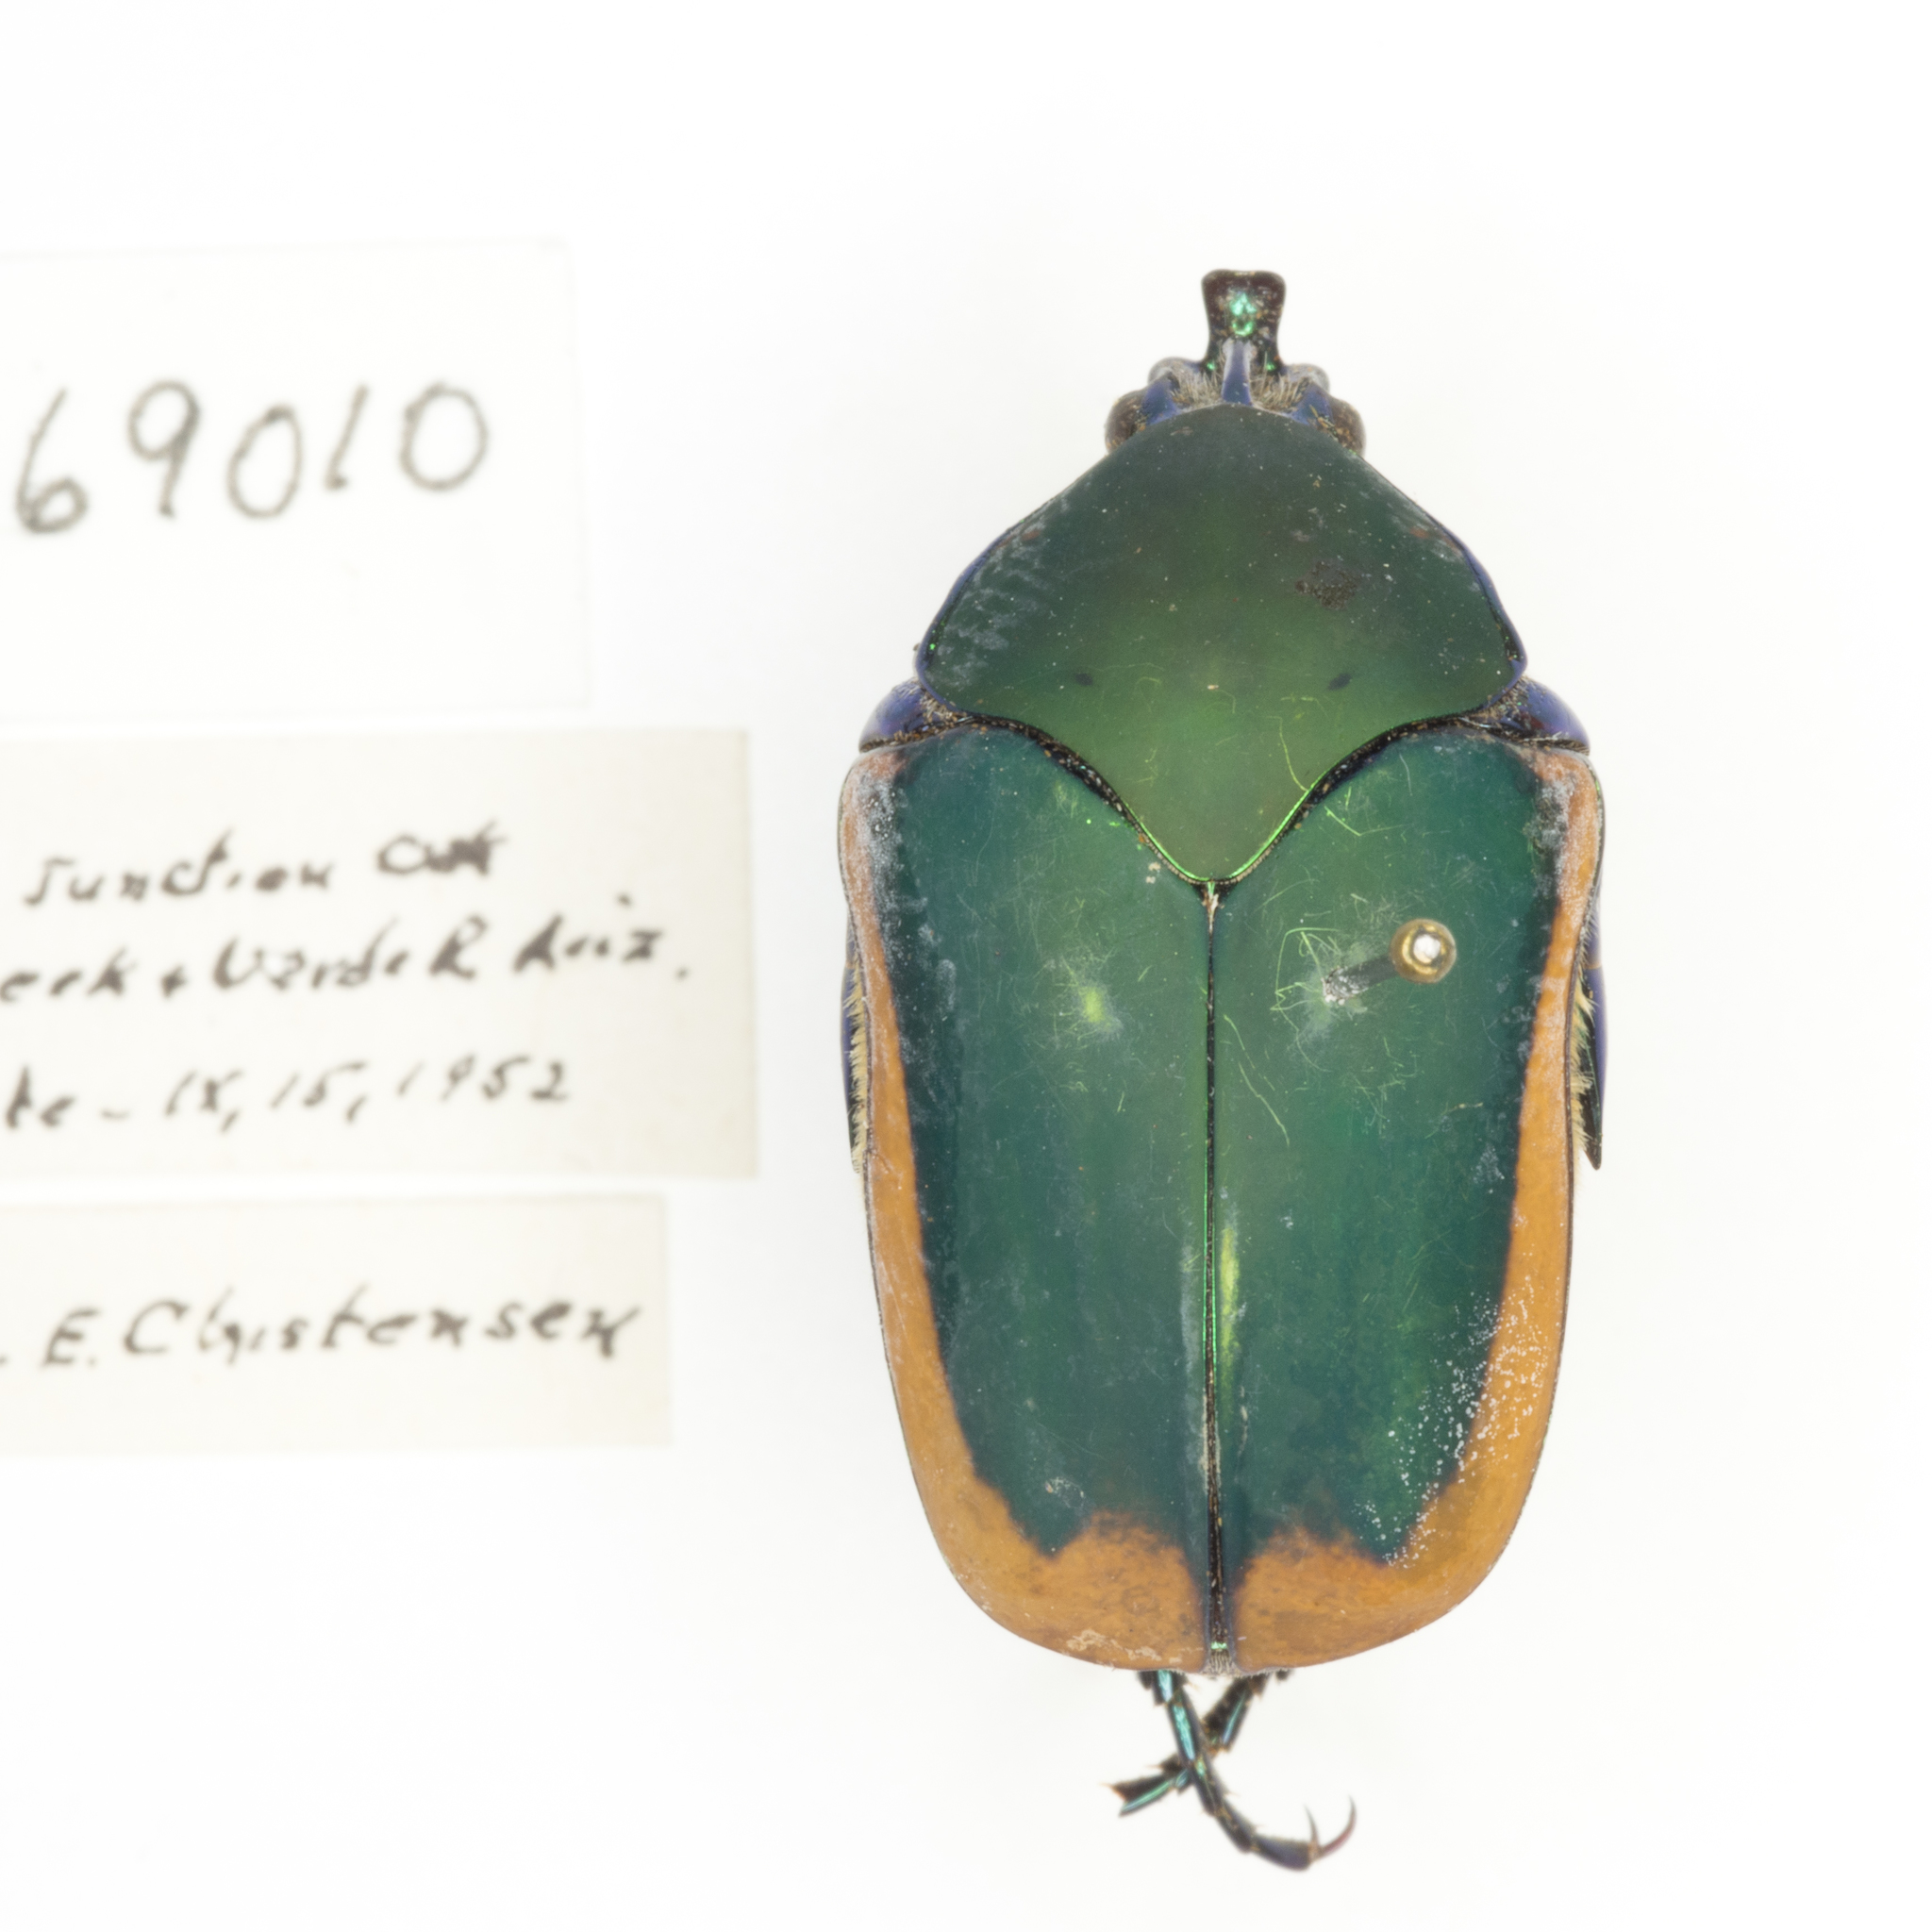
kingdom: Animalia
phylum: Arthropoda
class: Insecta
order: Coleoptera
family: Scarabaeidae
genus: Cotinis
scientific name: Cotinis mutabilis
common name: Figeater beetle
